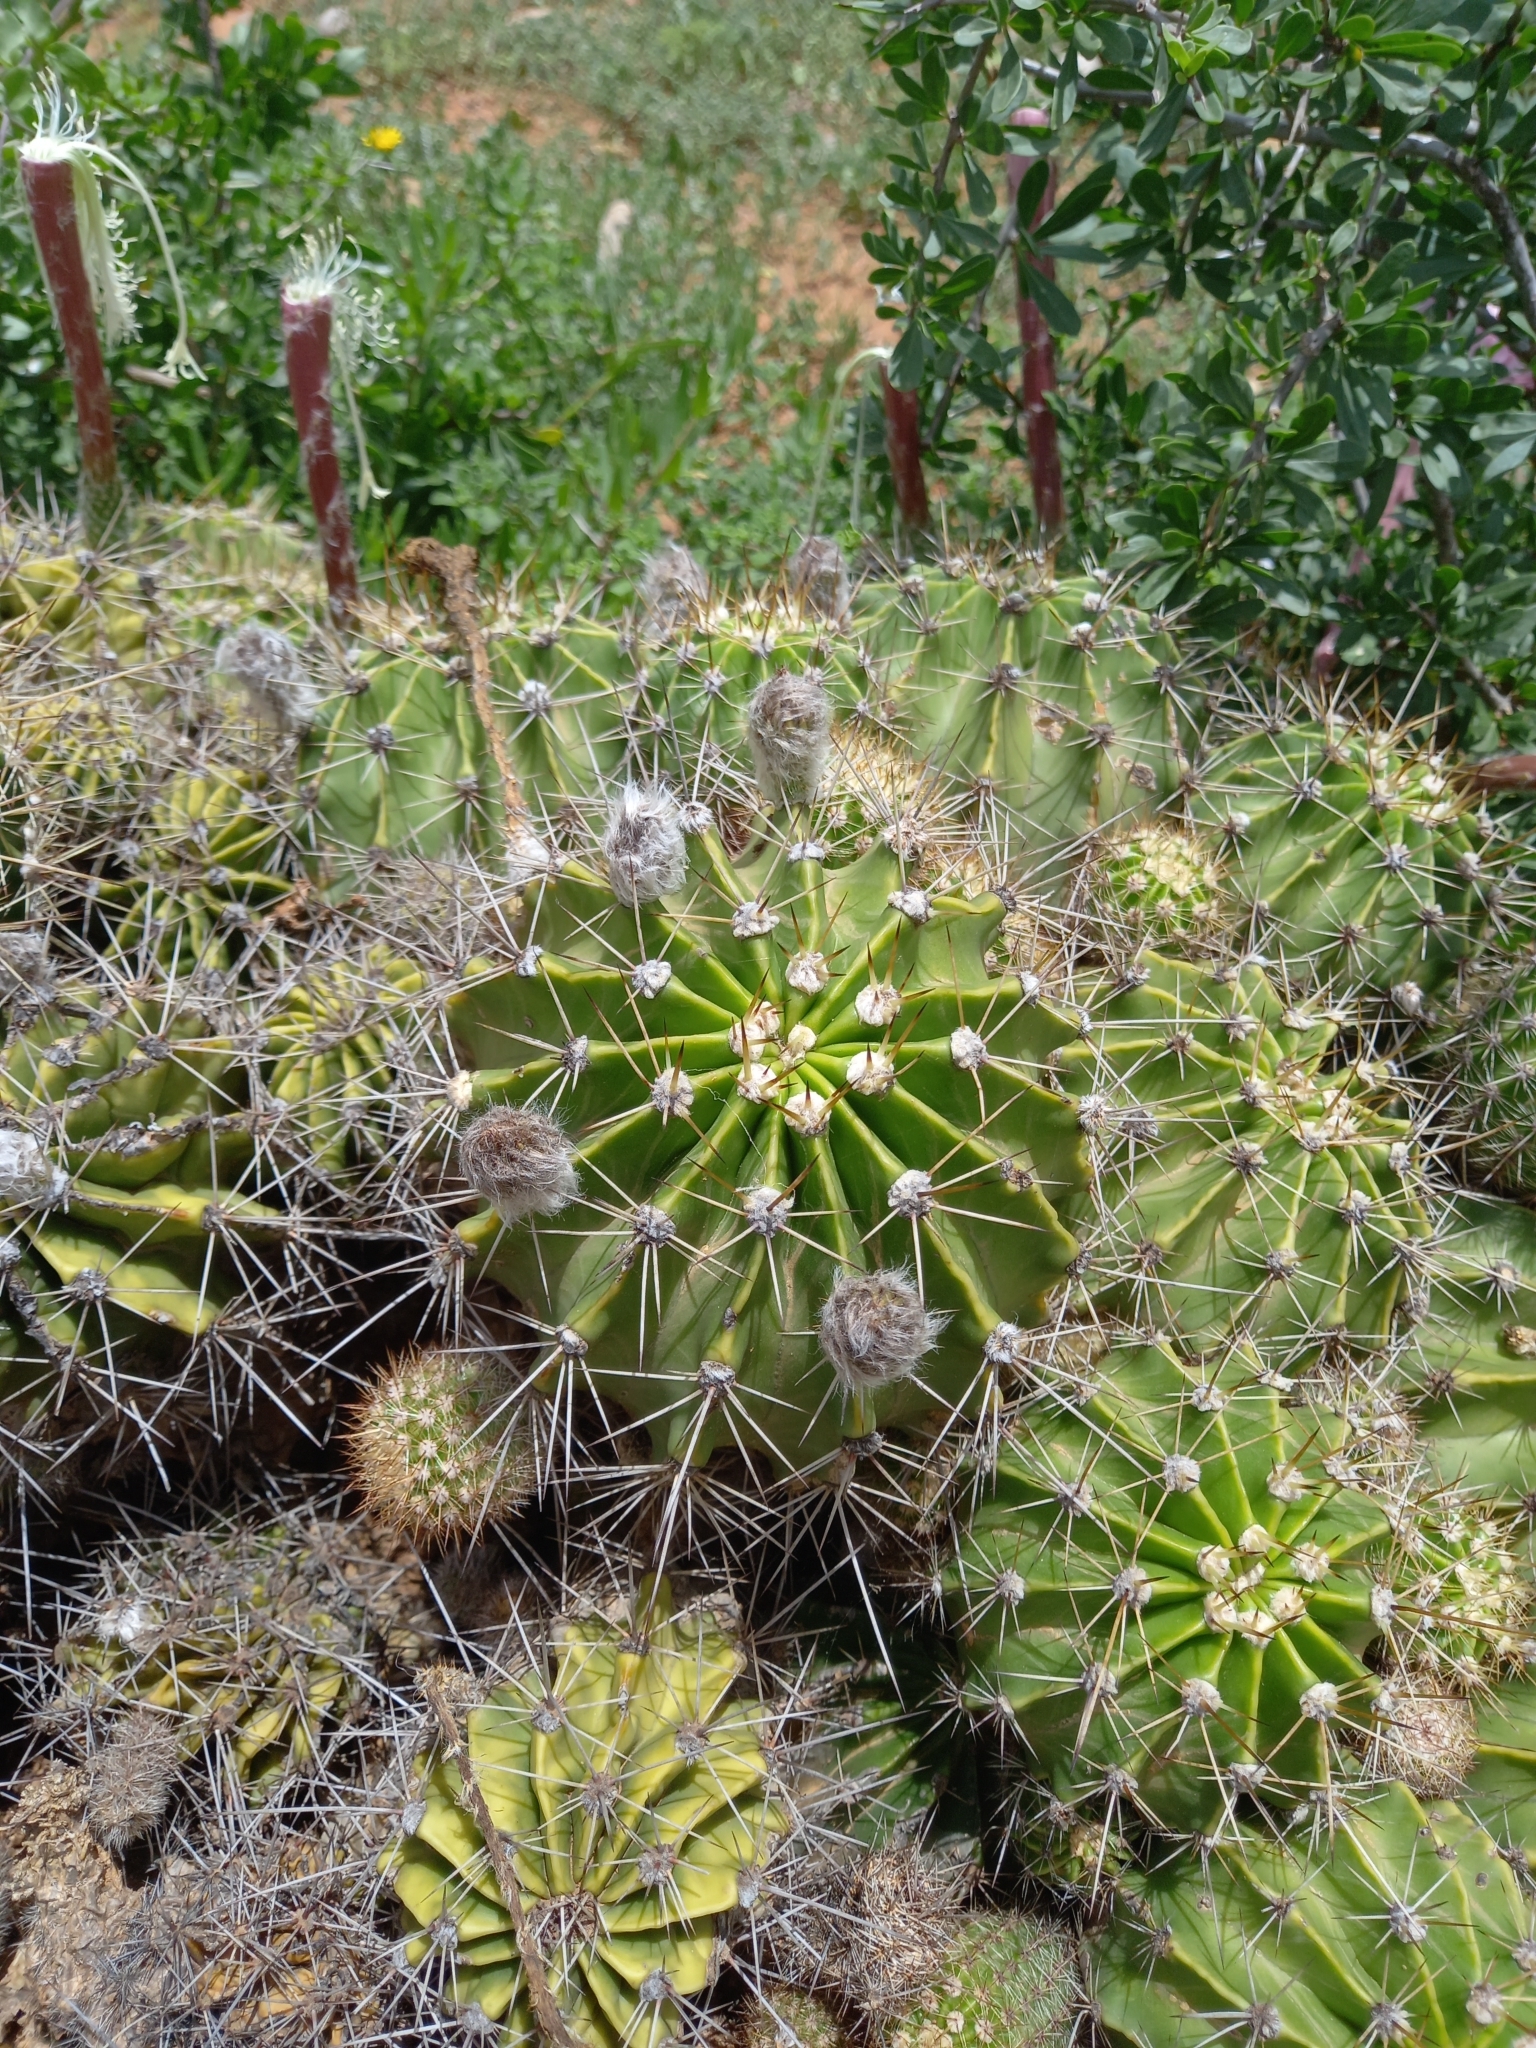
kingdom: Plantae
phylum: Tracheophyta
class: Magnoliopsida
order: Caryophyllales
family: Cactaceae
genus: Echinopsis
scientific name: Echinopsis oxygona
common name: Red easter-lily cactus
